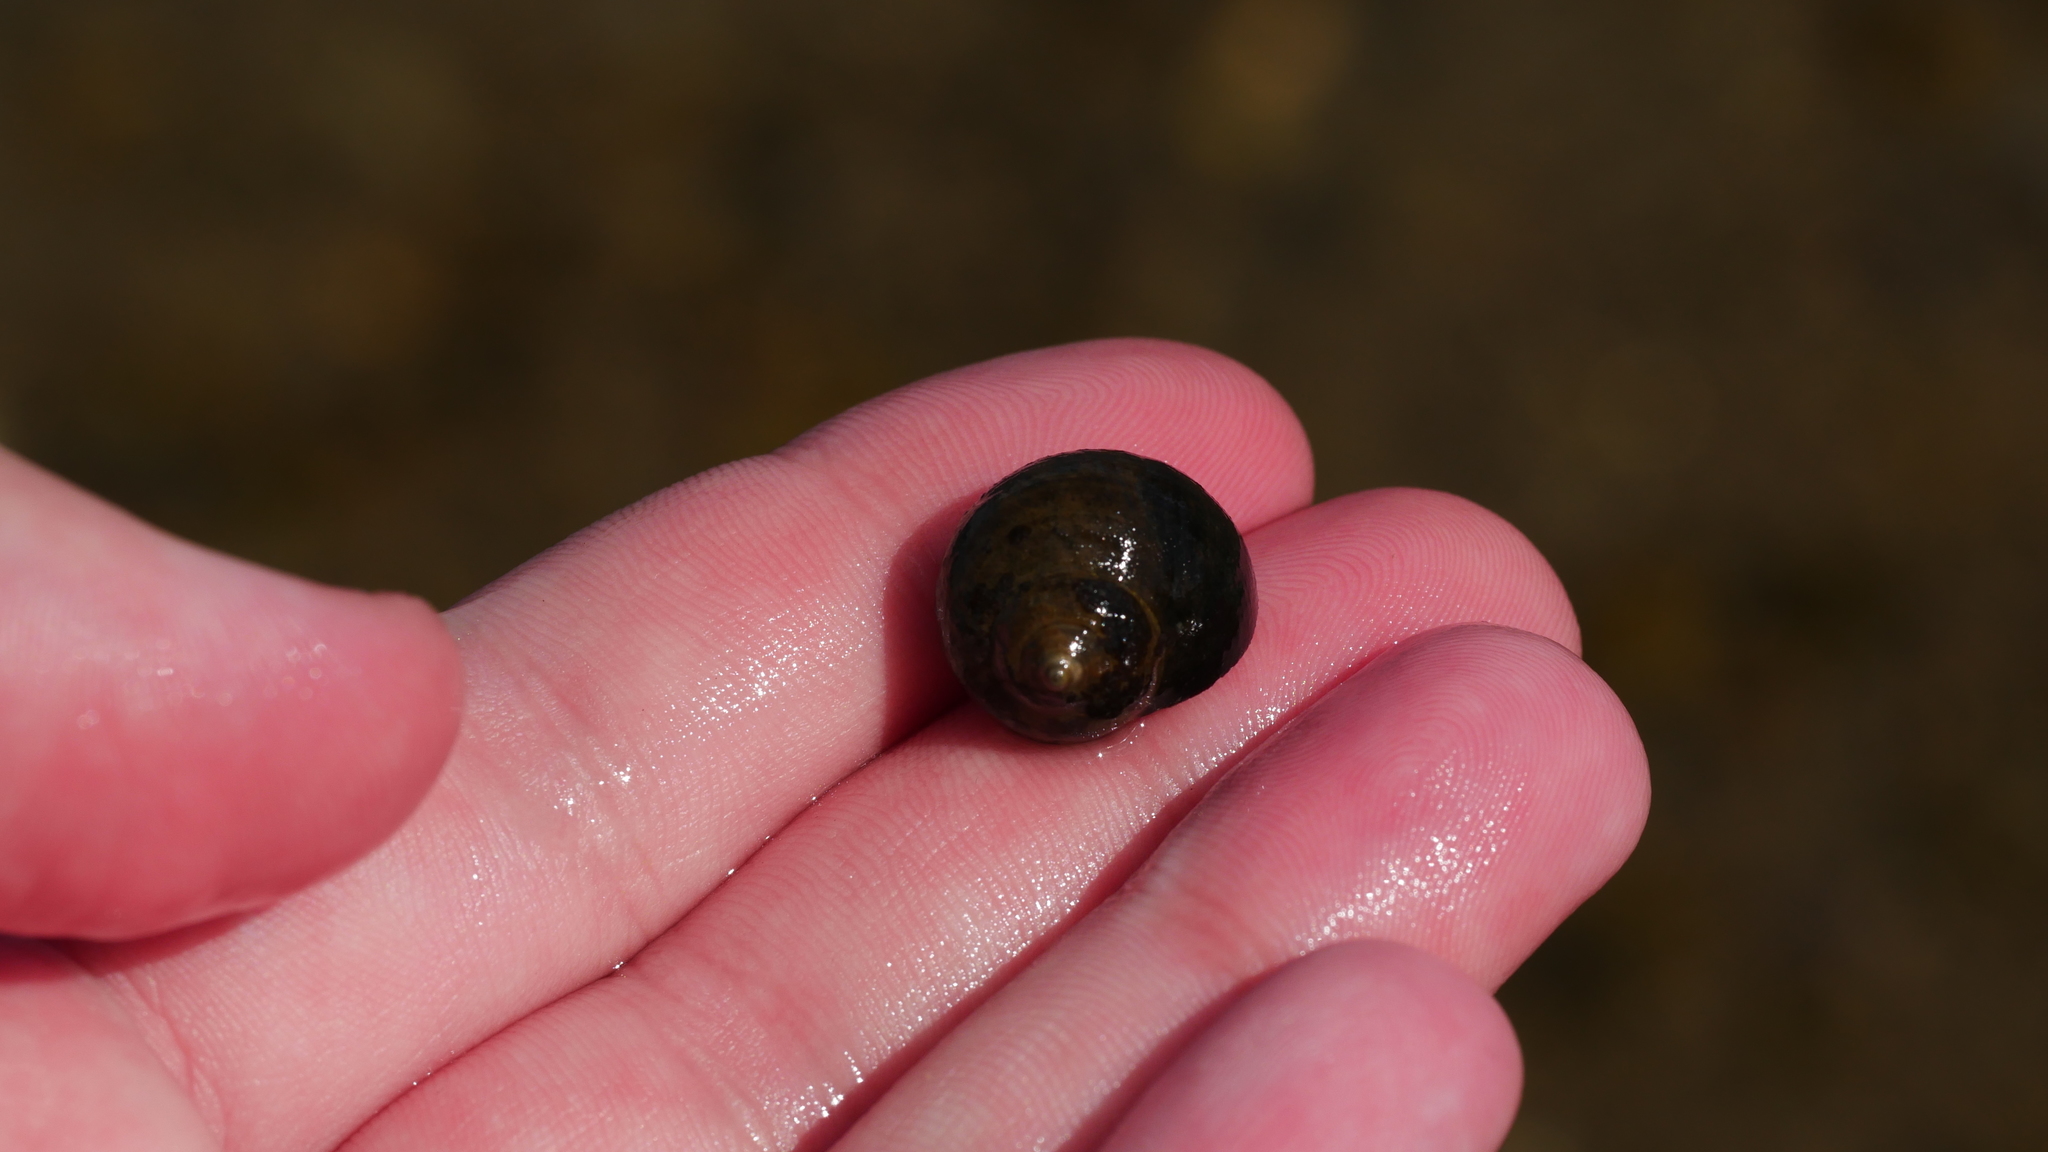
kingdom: Animalia
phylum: Mollusca
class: Gastropoda
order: Littorinimorpha
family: Littorinidae
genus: Littorina
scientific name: Littorina littorea
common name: Common periwinkle
